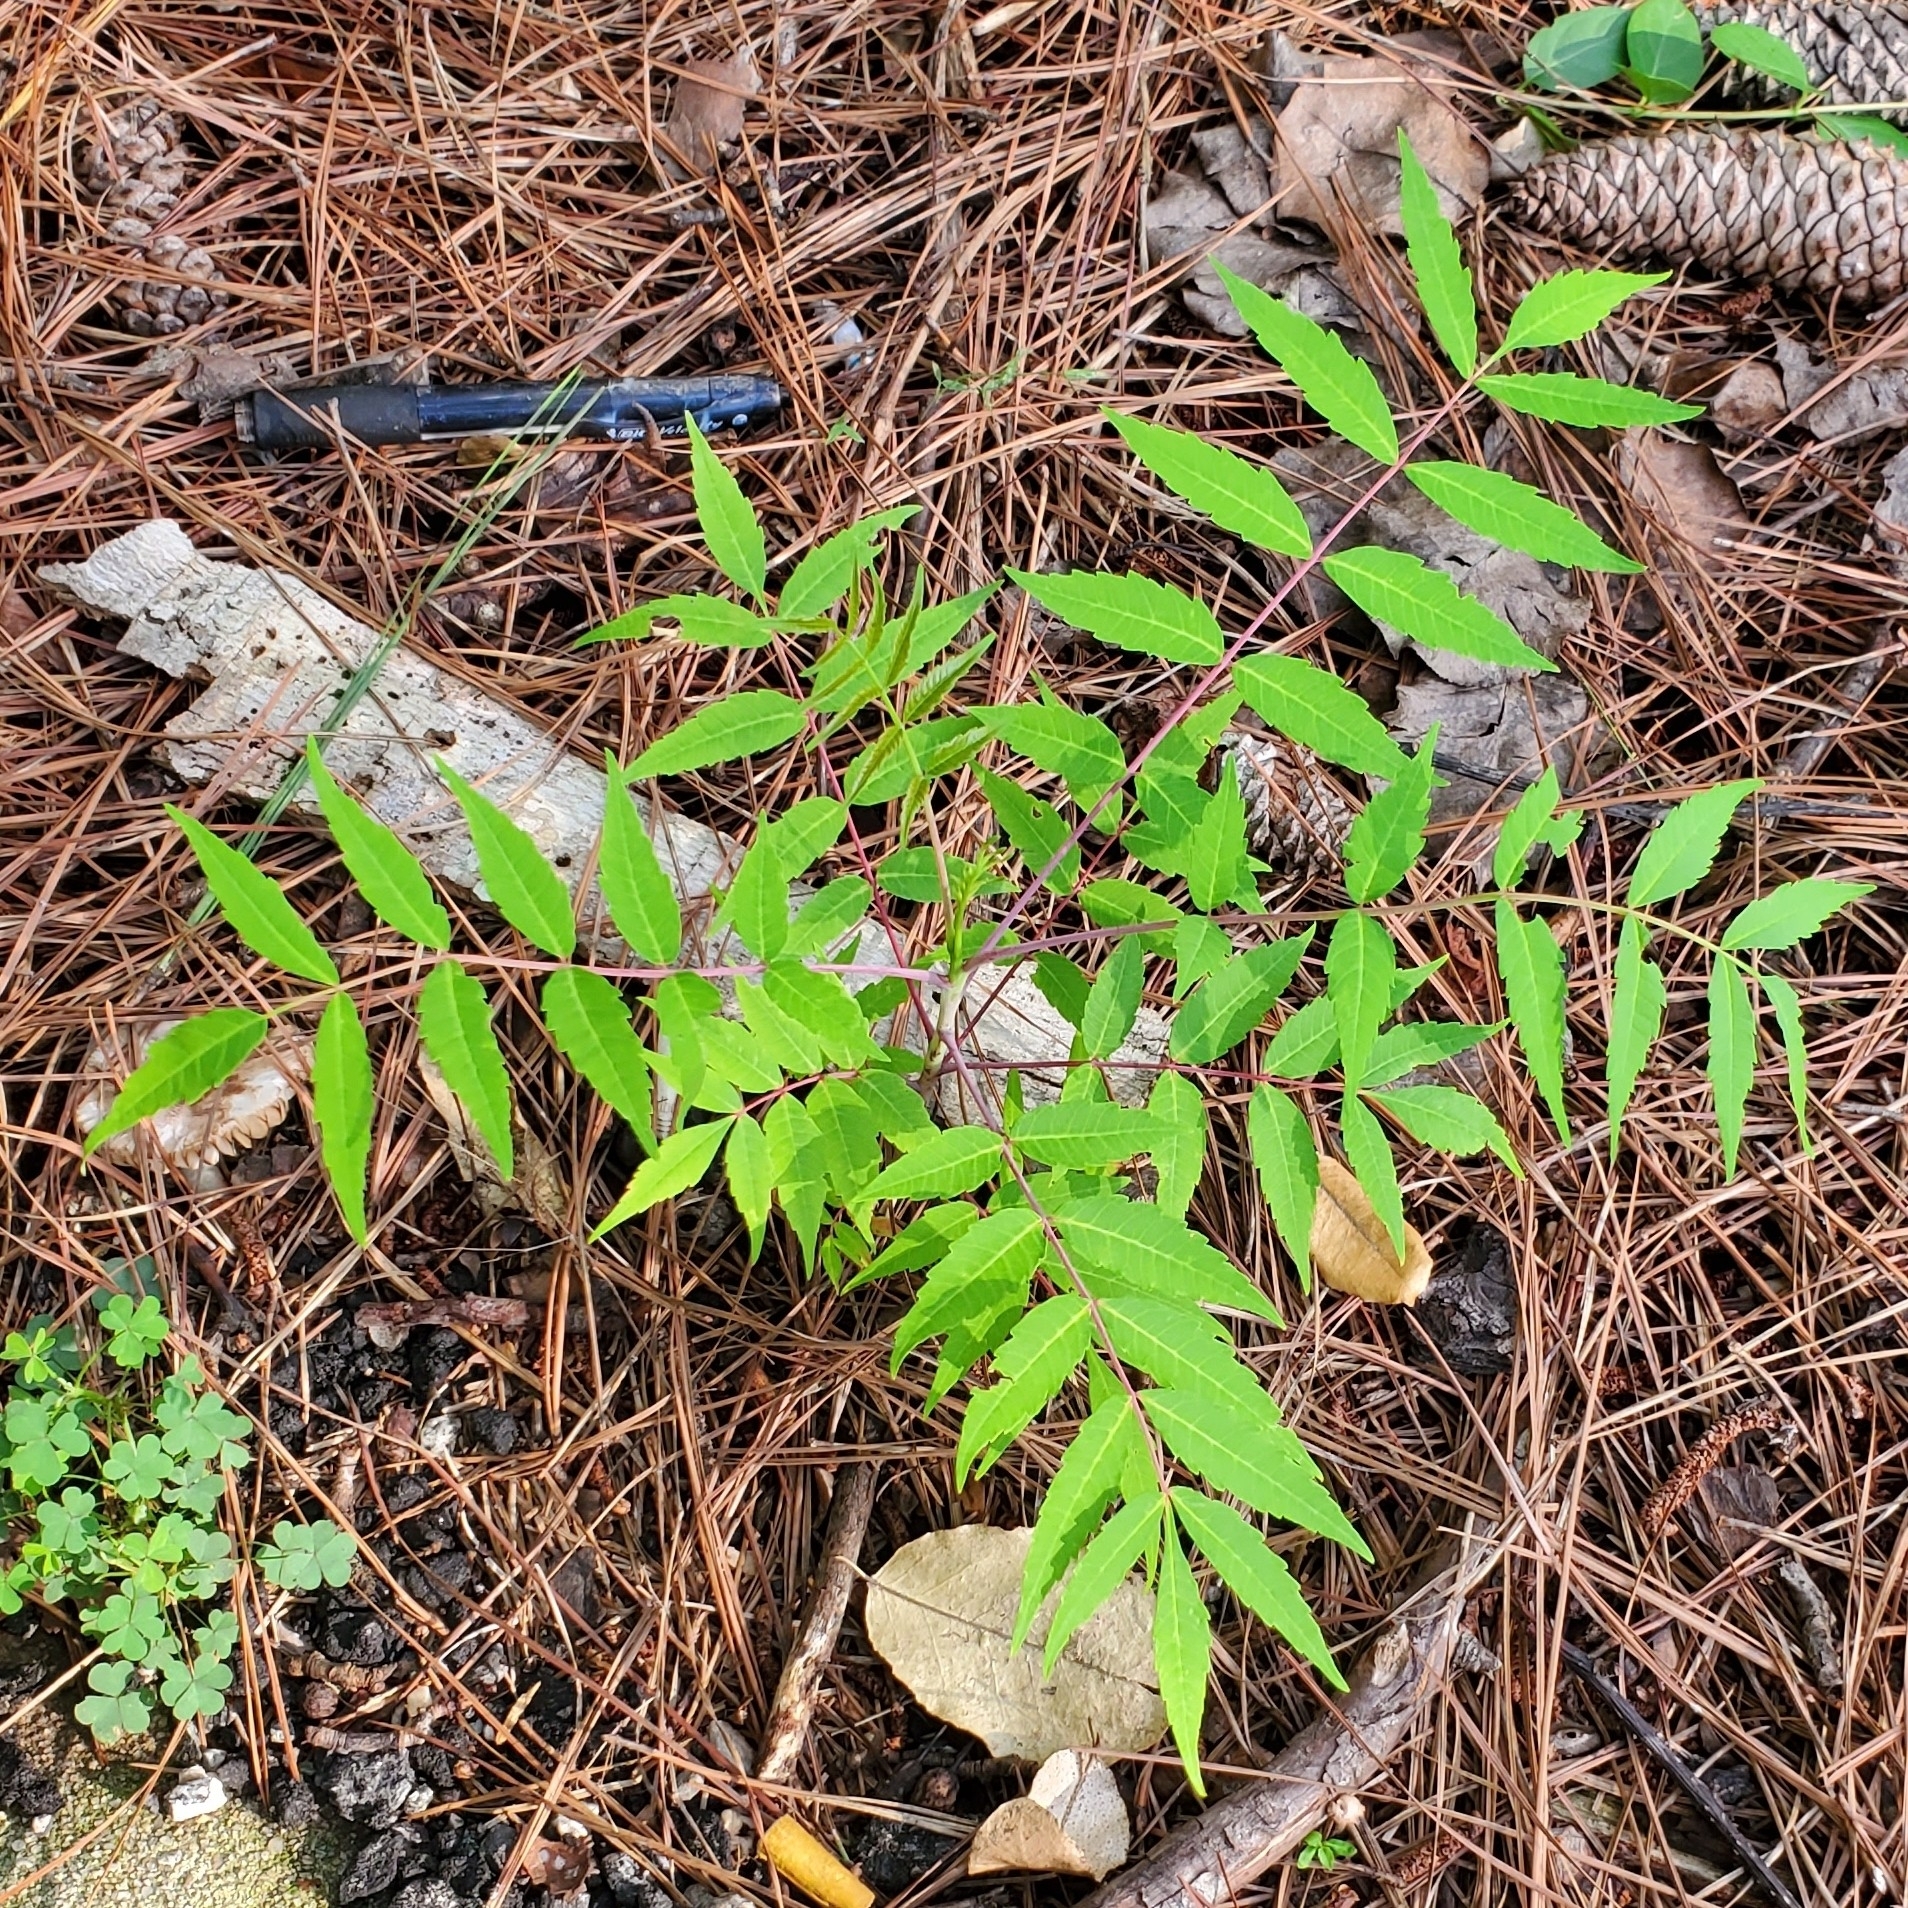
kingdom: Plantae
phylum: Tracheophyta
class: Magnoliopsida
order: Sapindales
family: Anacardiaceae
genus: Rhus
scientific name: Rhus glabra
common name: Scarlet sumac
